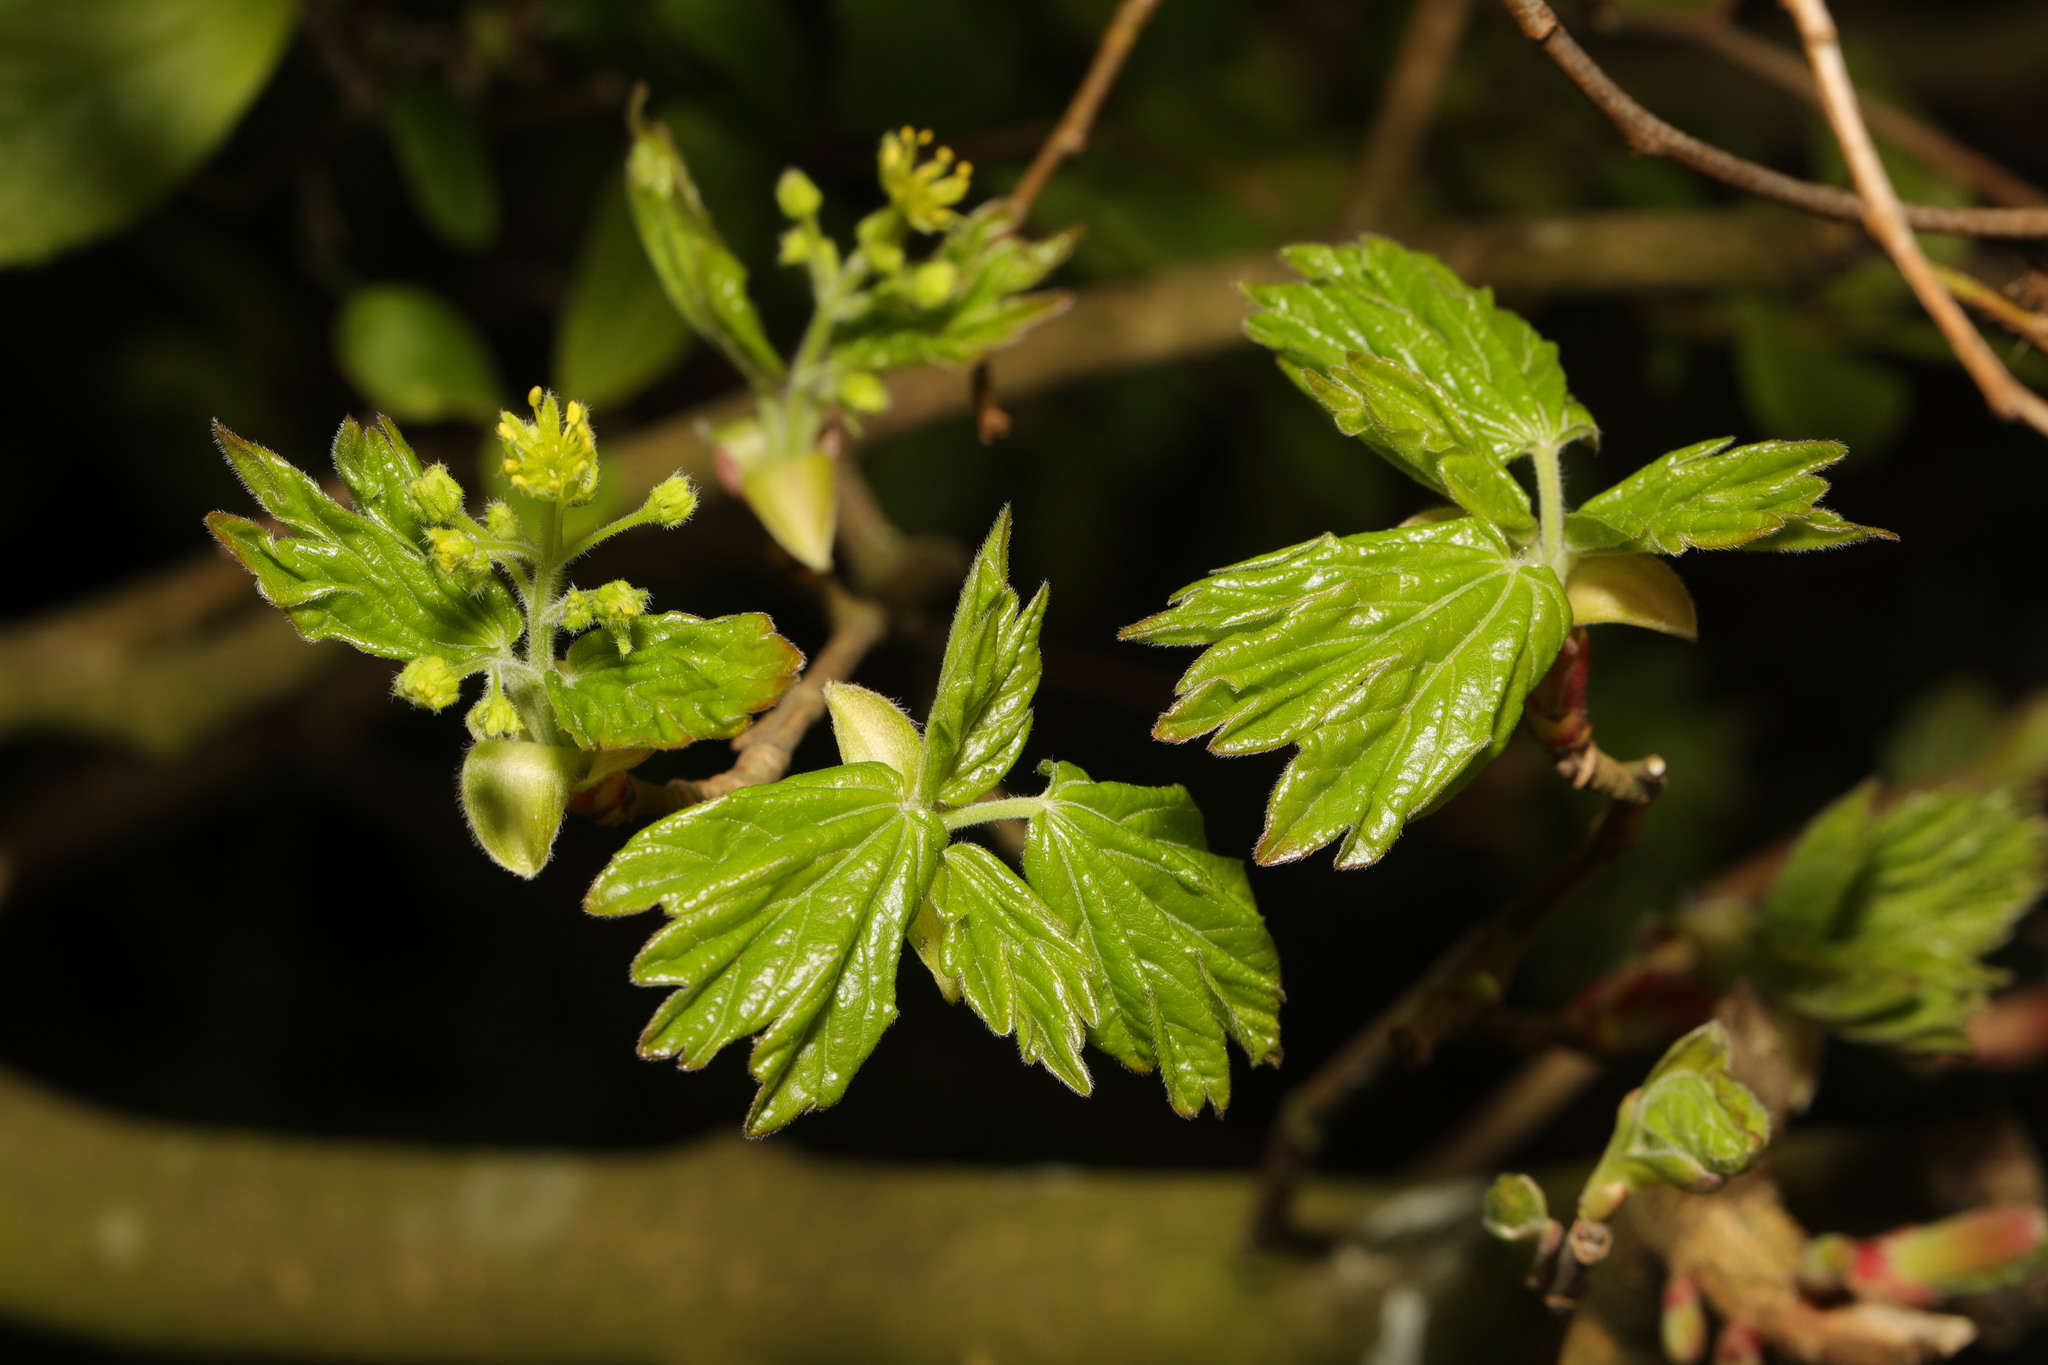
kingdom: Plantae
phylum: Tracheophyta
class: Magnoliopsida
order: Sapindales
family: Sapindaceae
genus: Acer
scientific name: Acer campestre
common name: Field maple
